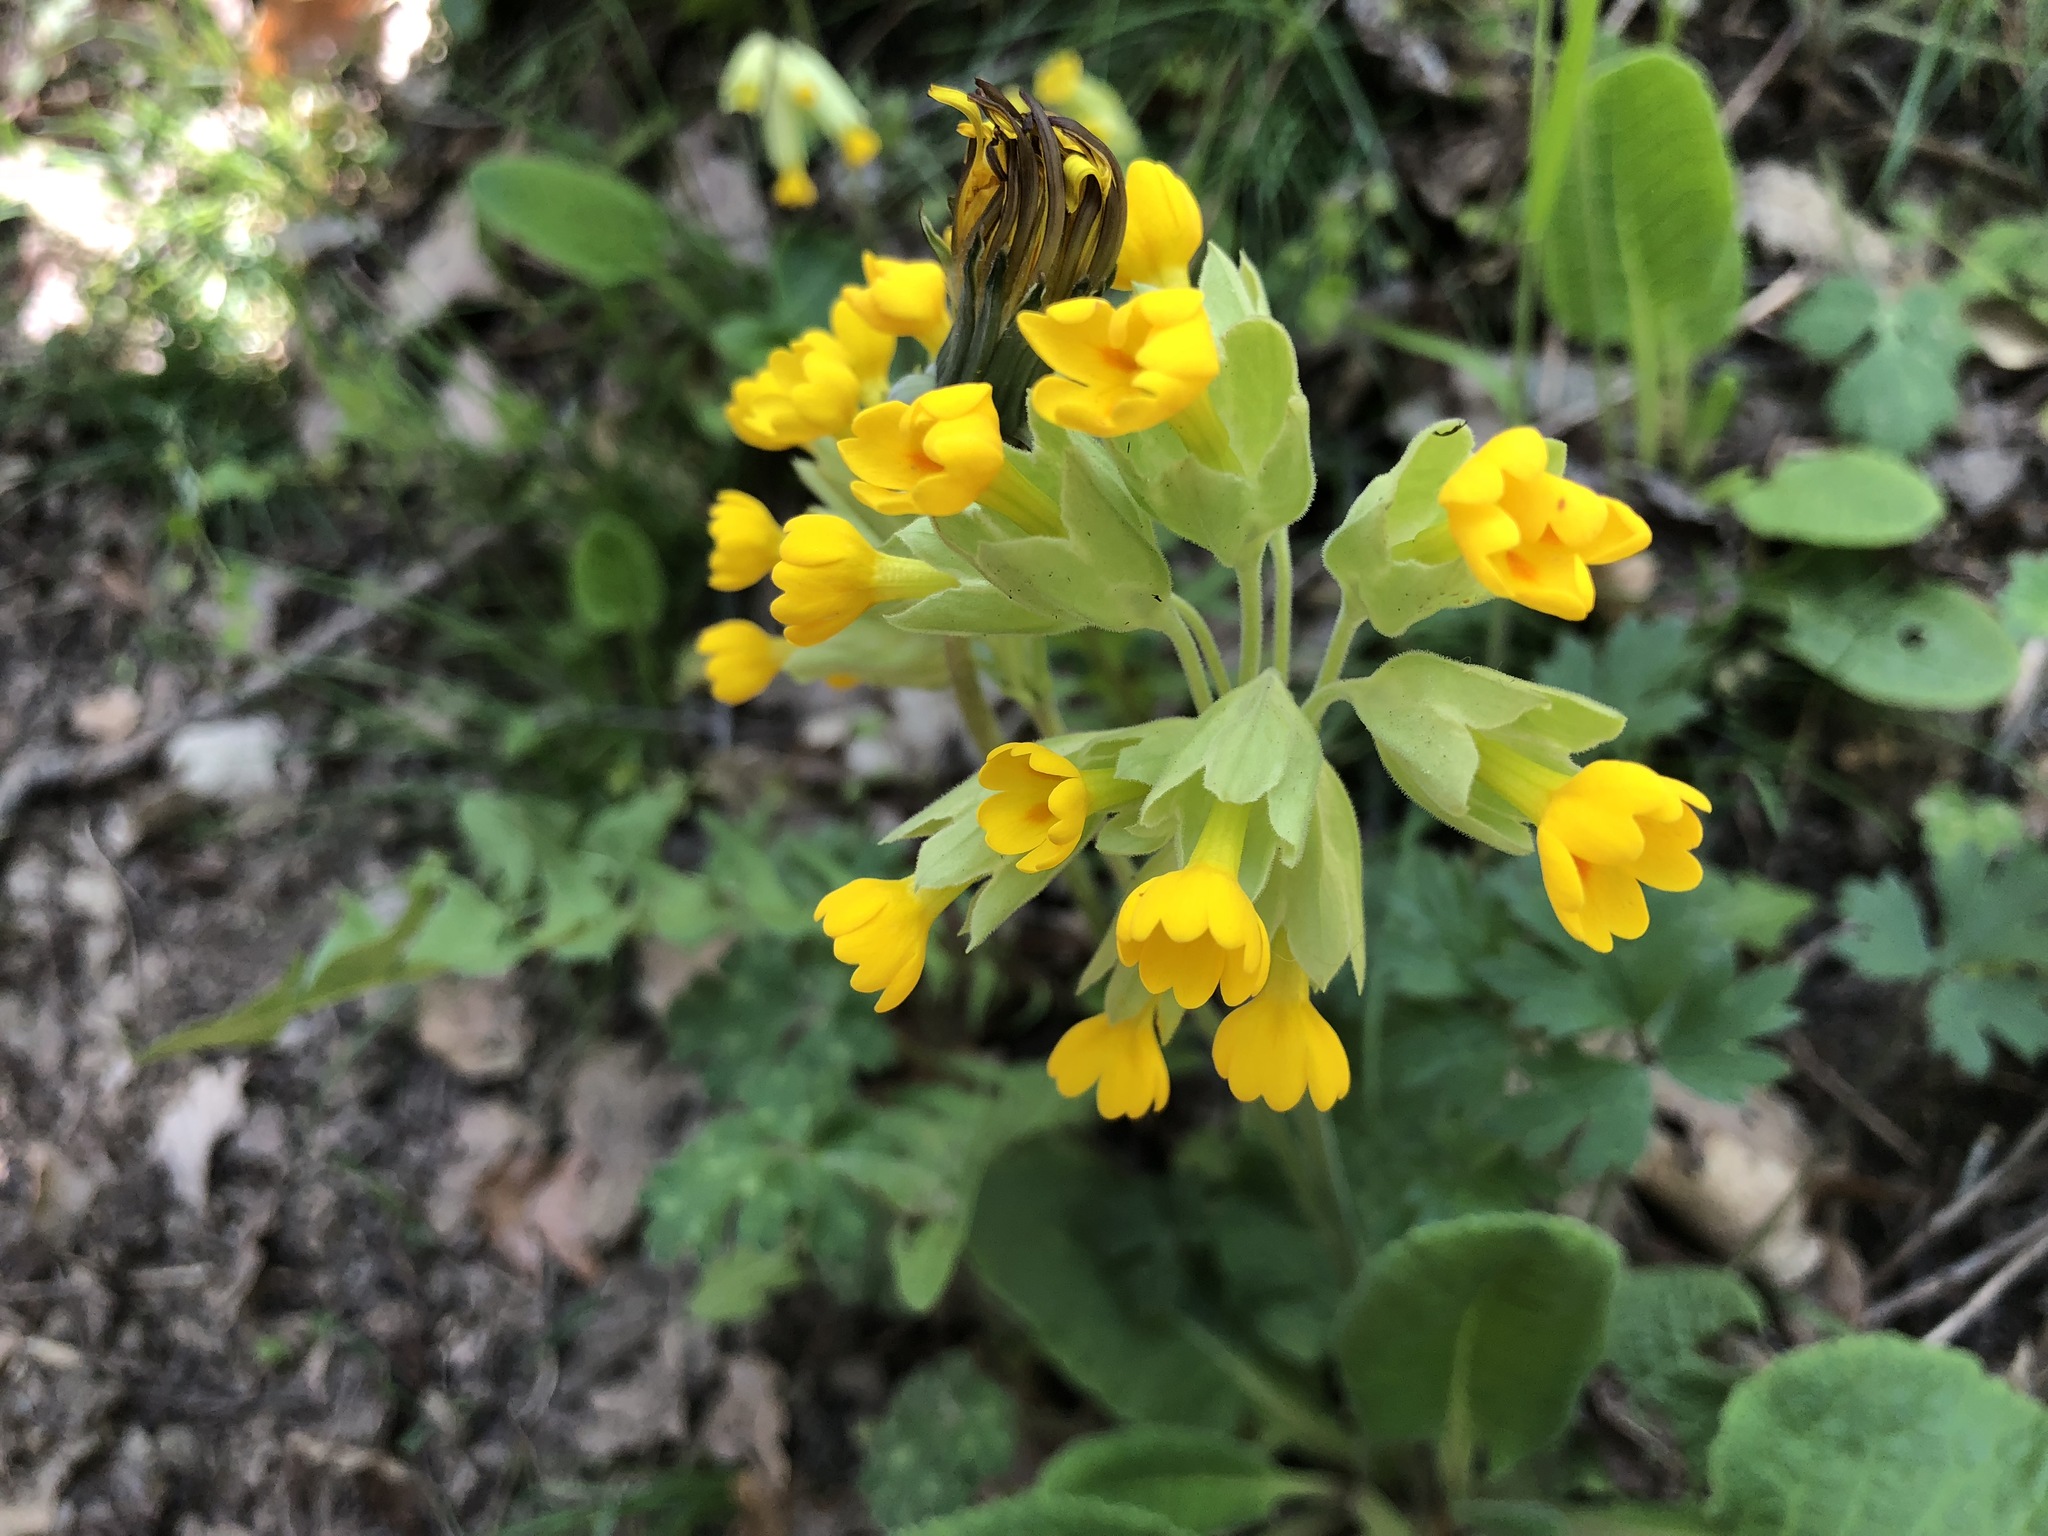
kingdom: Plantae
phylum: Tracheophyta
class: Magnoliopsida
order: Ericales
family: Primulaceae
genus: Primula
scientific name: Primula veris
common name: Cowslip
